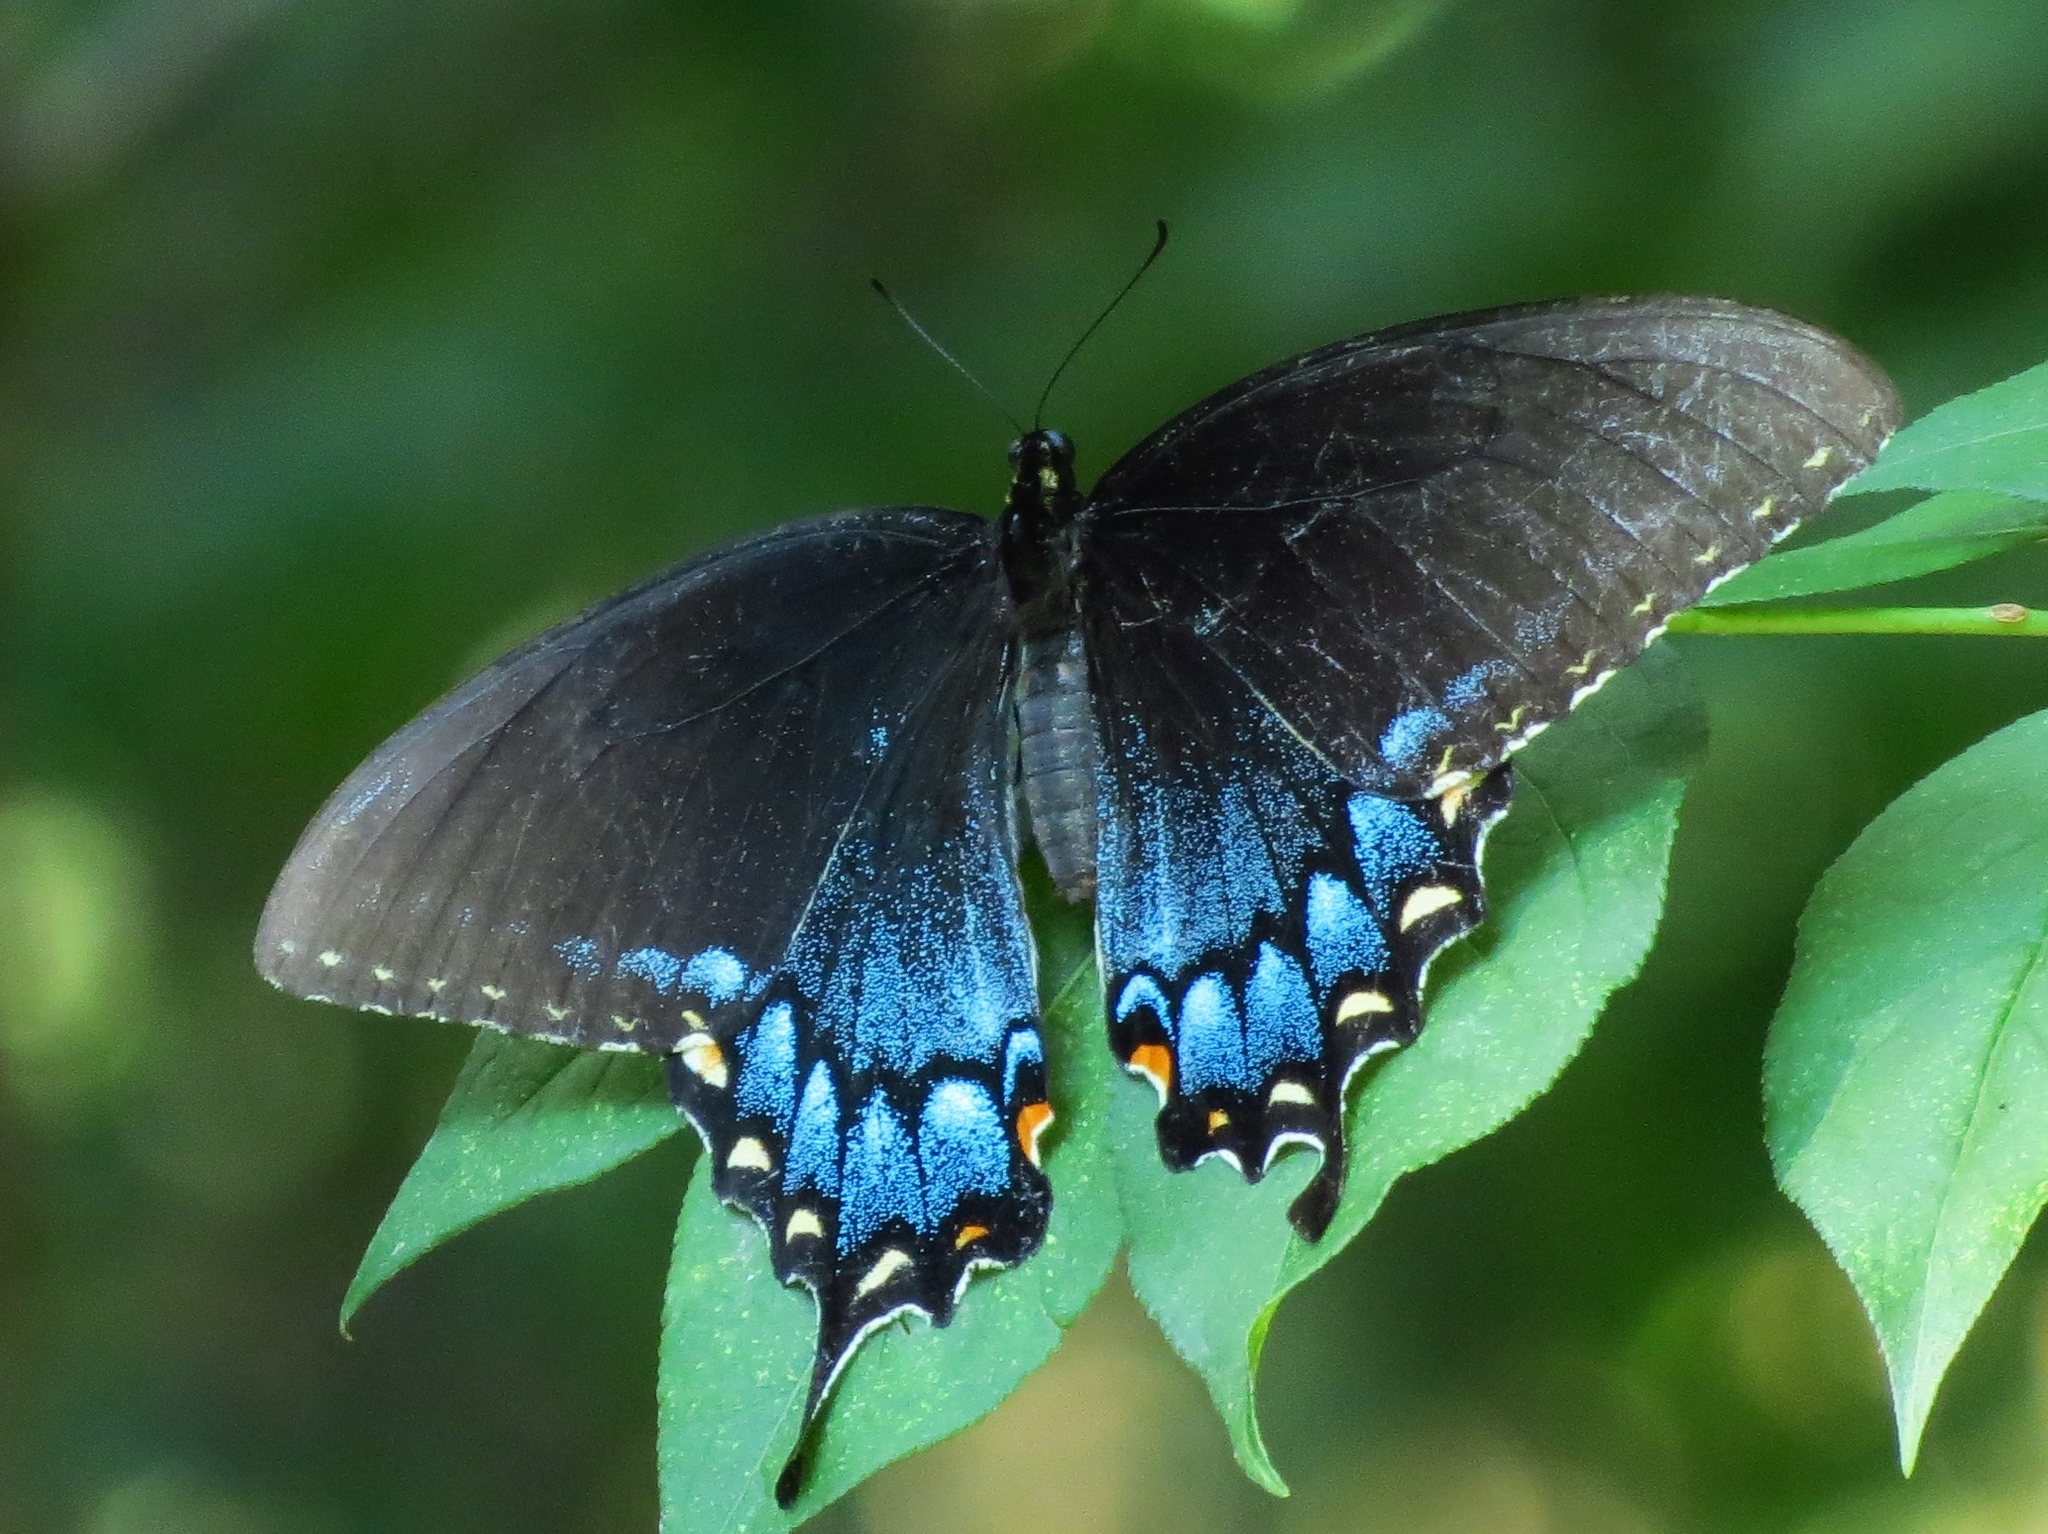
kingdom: Animalia
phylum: Arthropoda
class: Insecta
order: Lepidoptera
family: Papilionidae
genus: Papilio
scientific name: Papilio glaucus
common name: Tiger swallowtail
